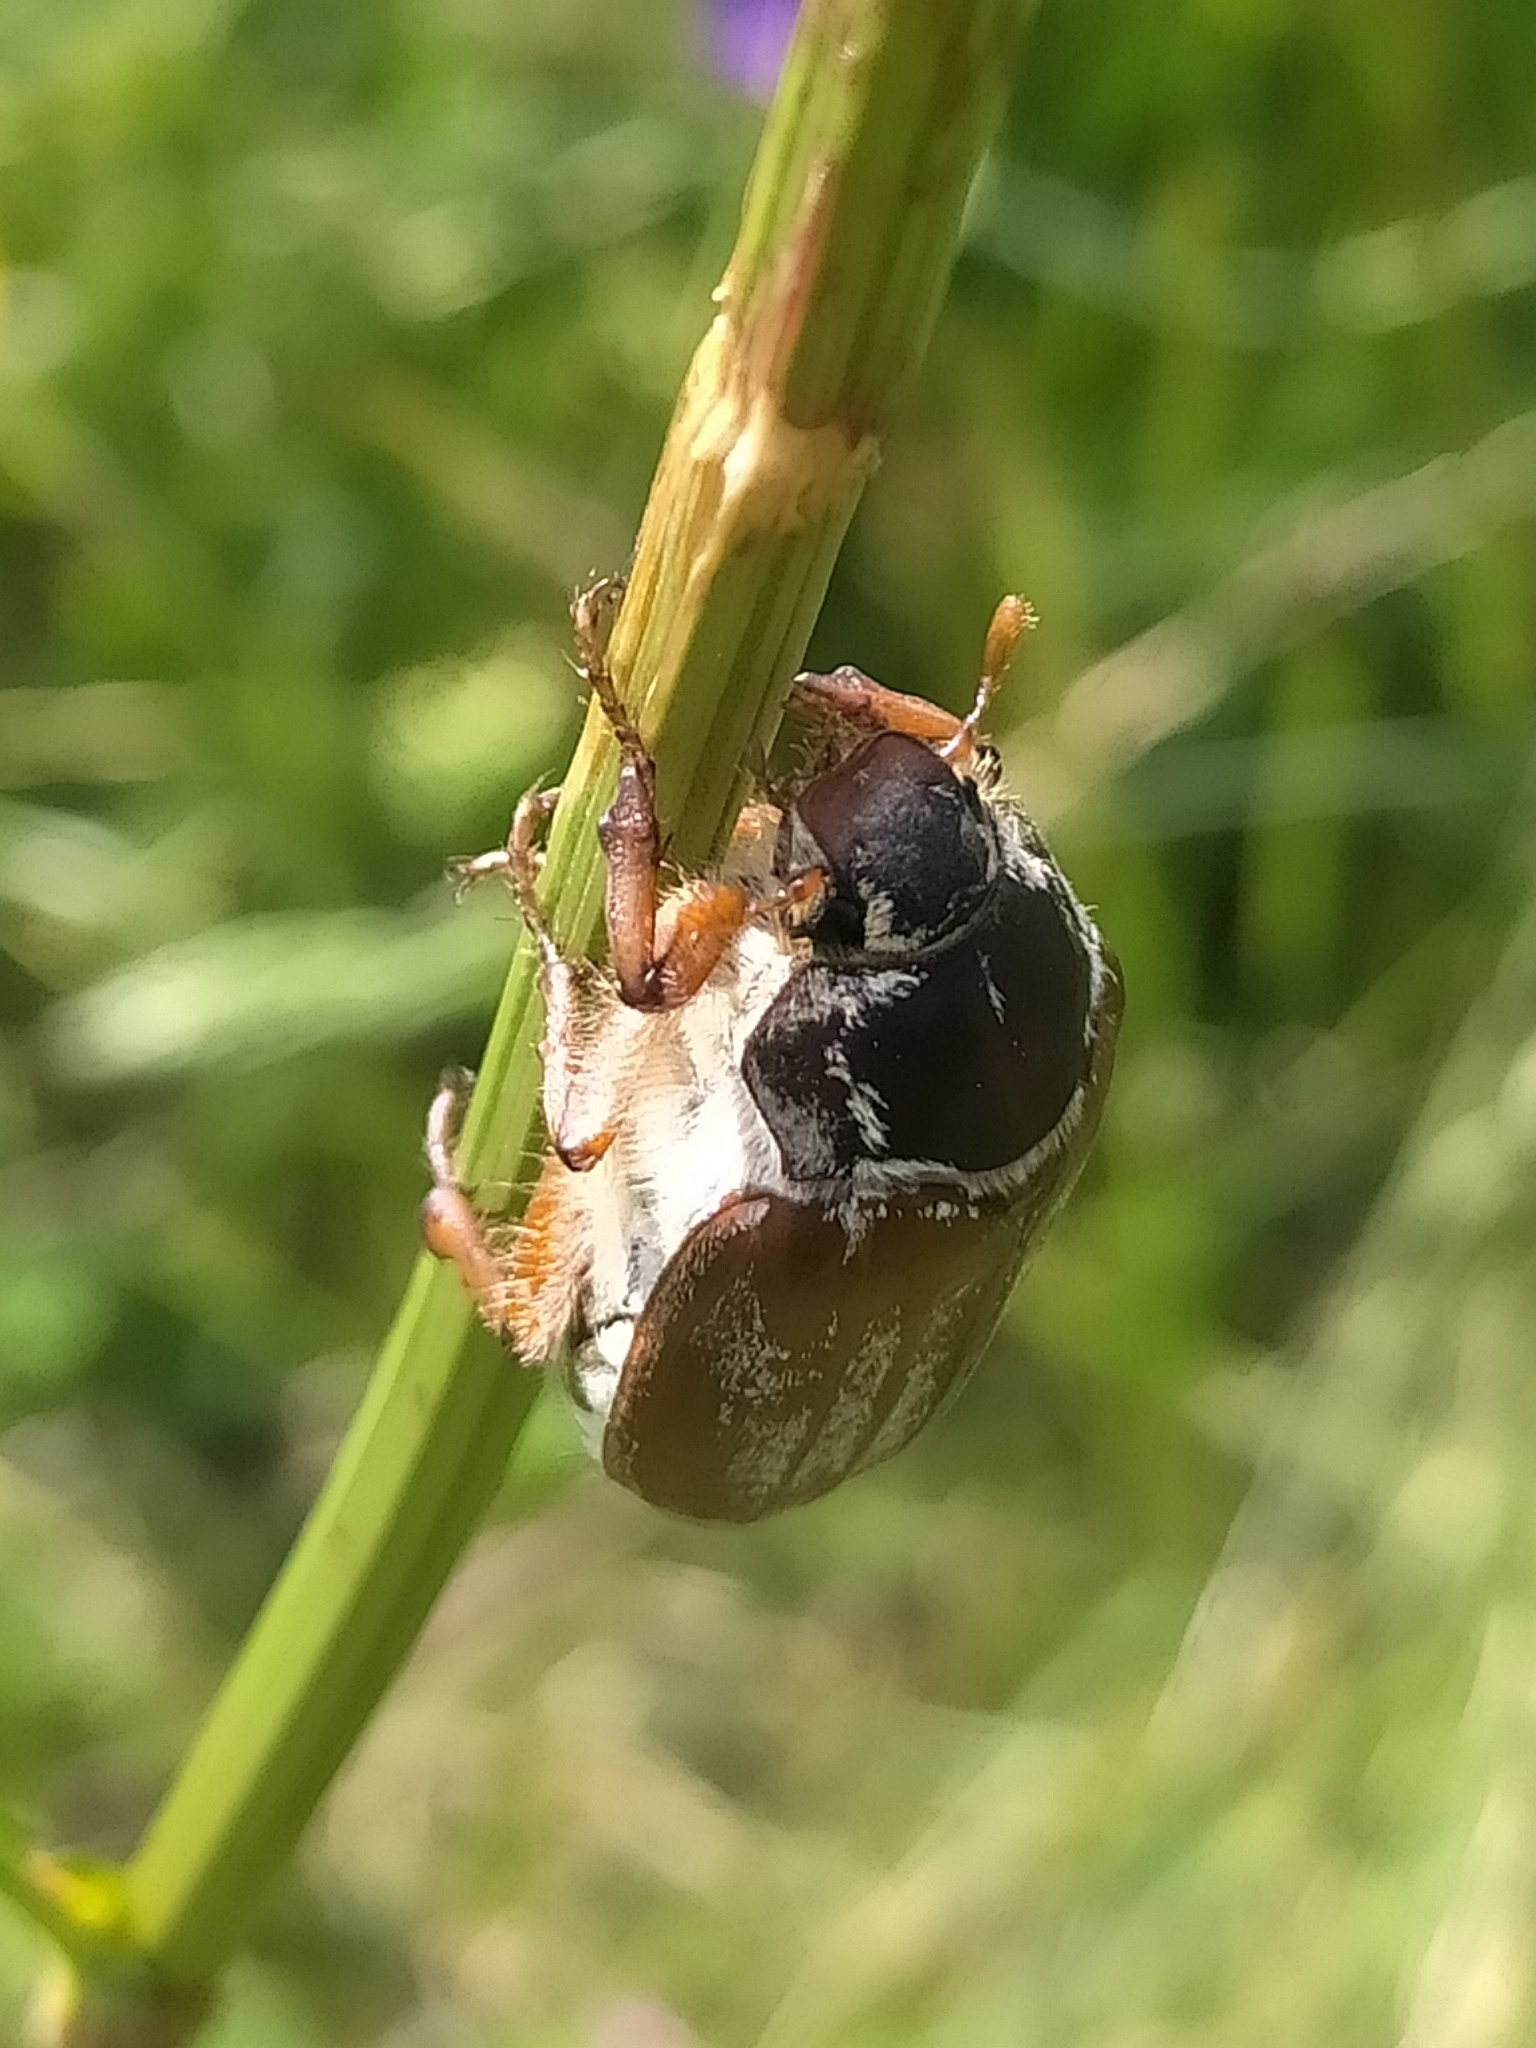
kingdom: Animalia
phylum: Arthropoda
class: Insecta
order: Coleoptera
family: Scarabaeidae
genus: Melolontha
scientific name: Melolontha pectoralis
